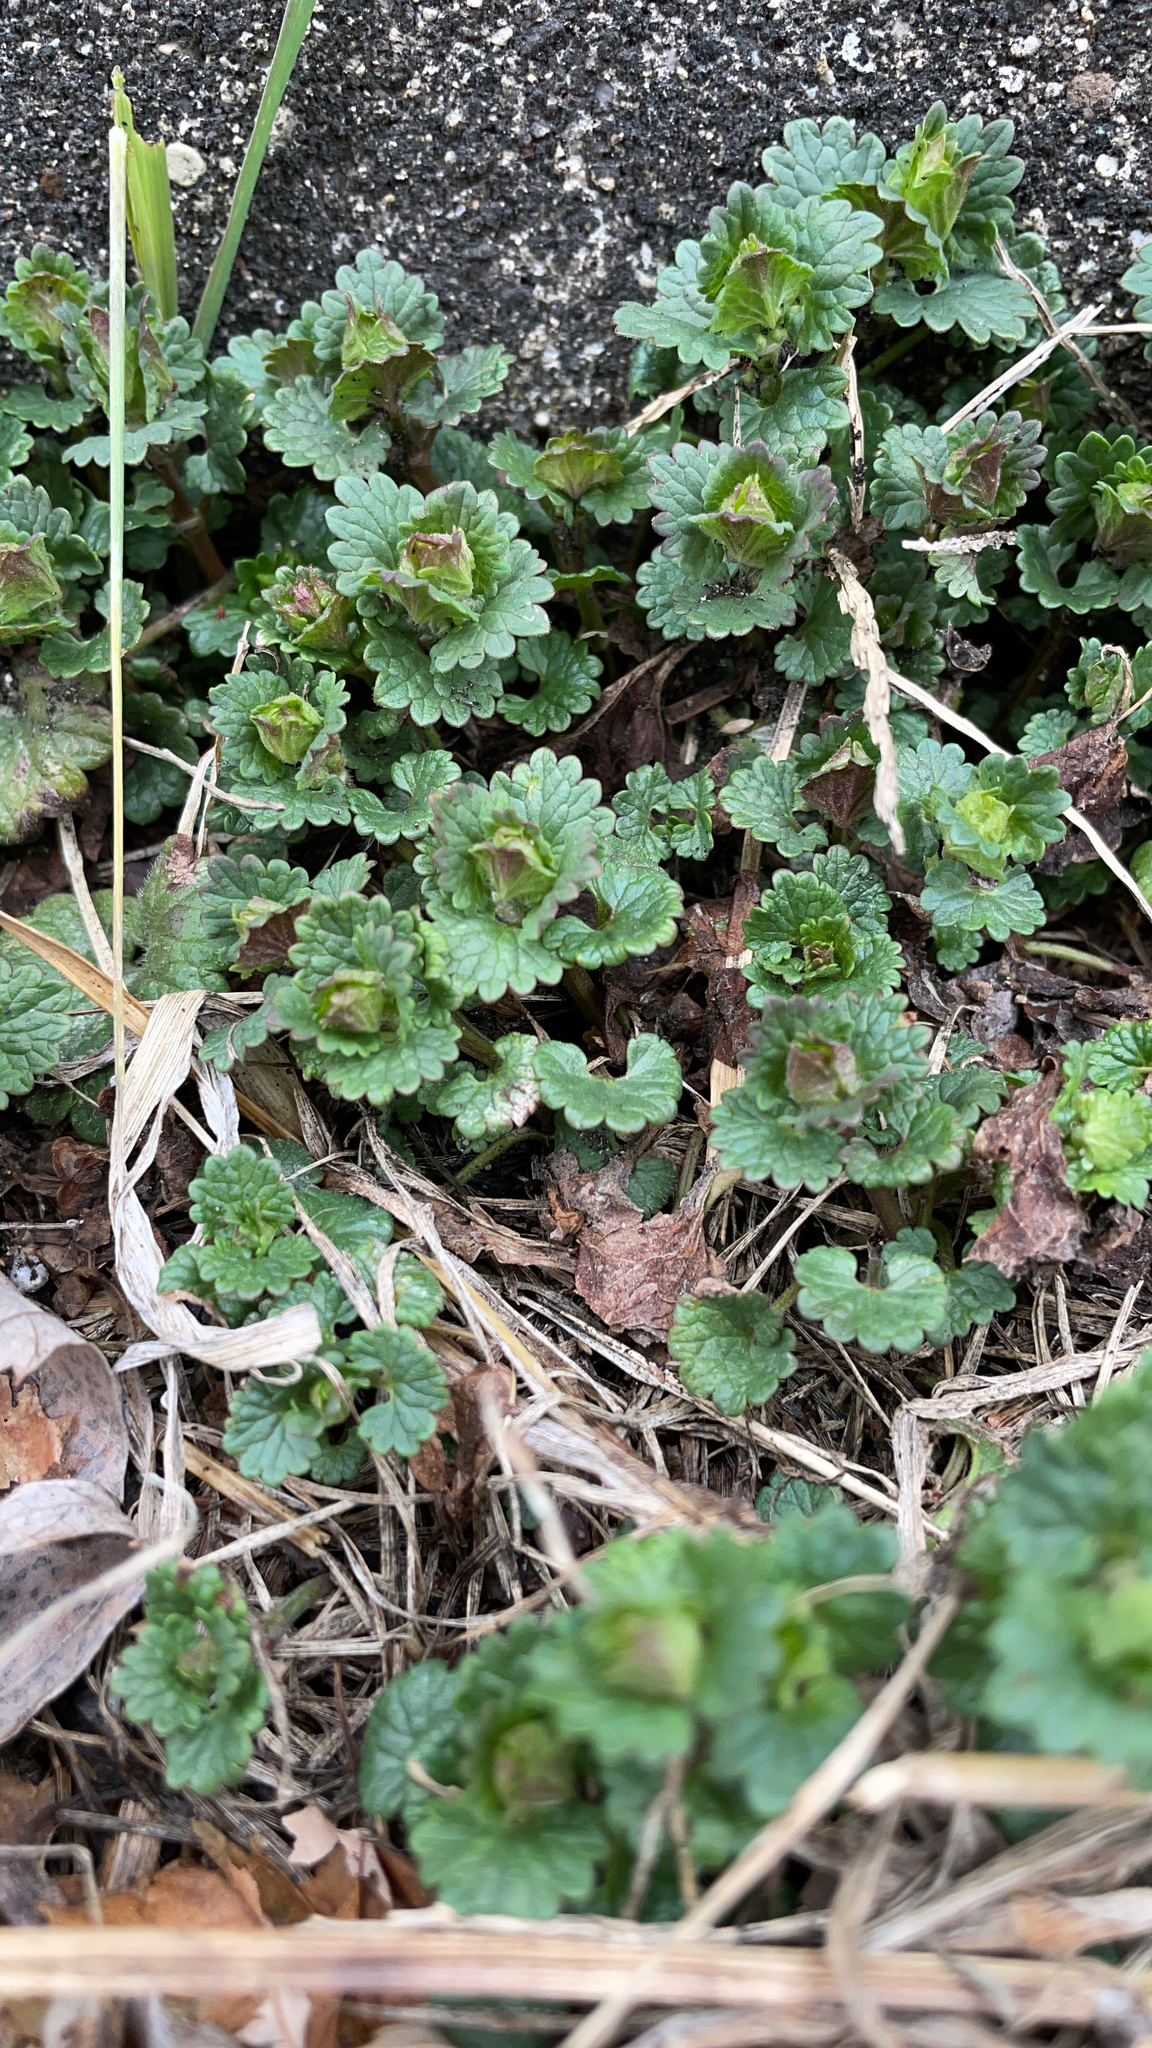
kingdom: Plantae
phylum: Tracheophyta
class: Magnoliopsida
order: Lamiales
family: Lamiaceae
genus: Glechoma
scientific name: Glechoma hederacea
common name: Ground ivy
